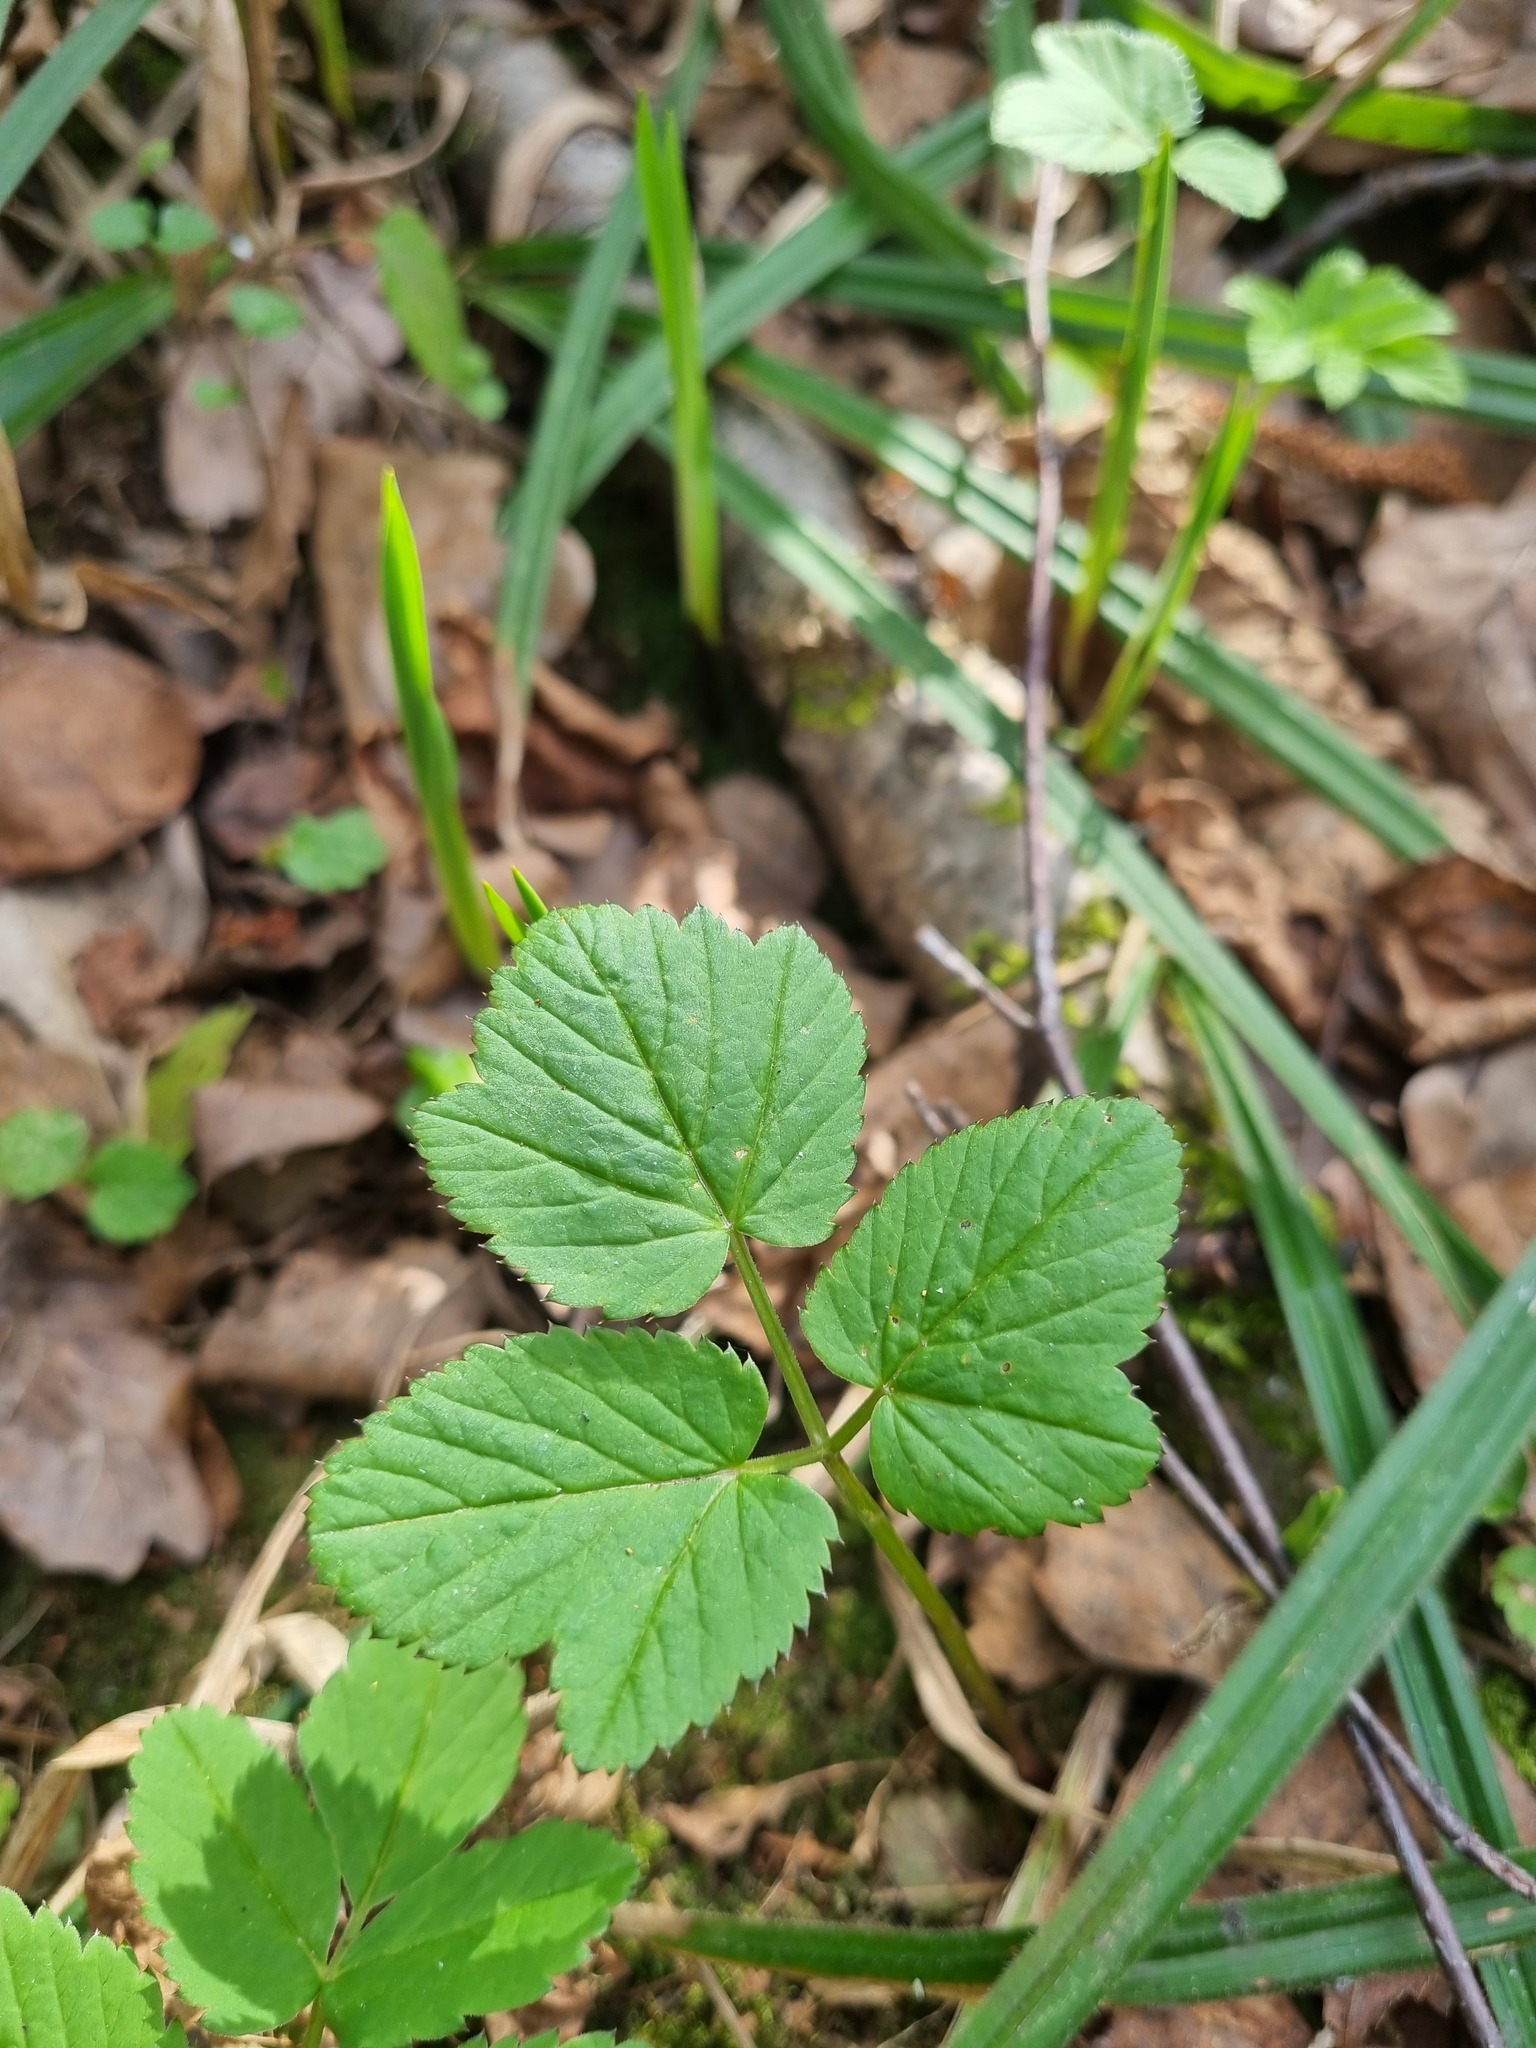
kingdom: Plantae
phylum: Tracheophyta
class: Magnoliopsida
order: Apiales
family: Apiaceae
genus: Aegopodium
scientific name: Aegopodium podagraria
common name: Ground-elder
